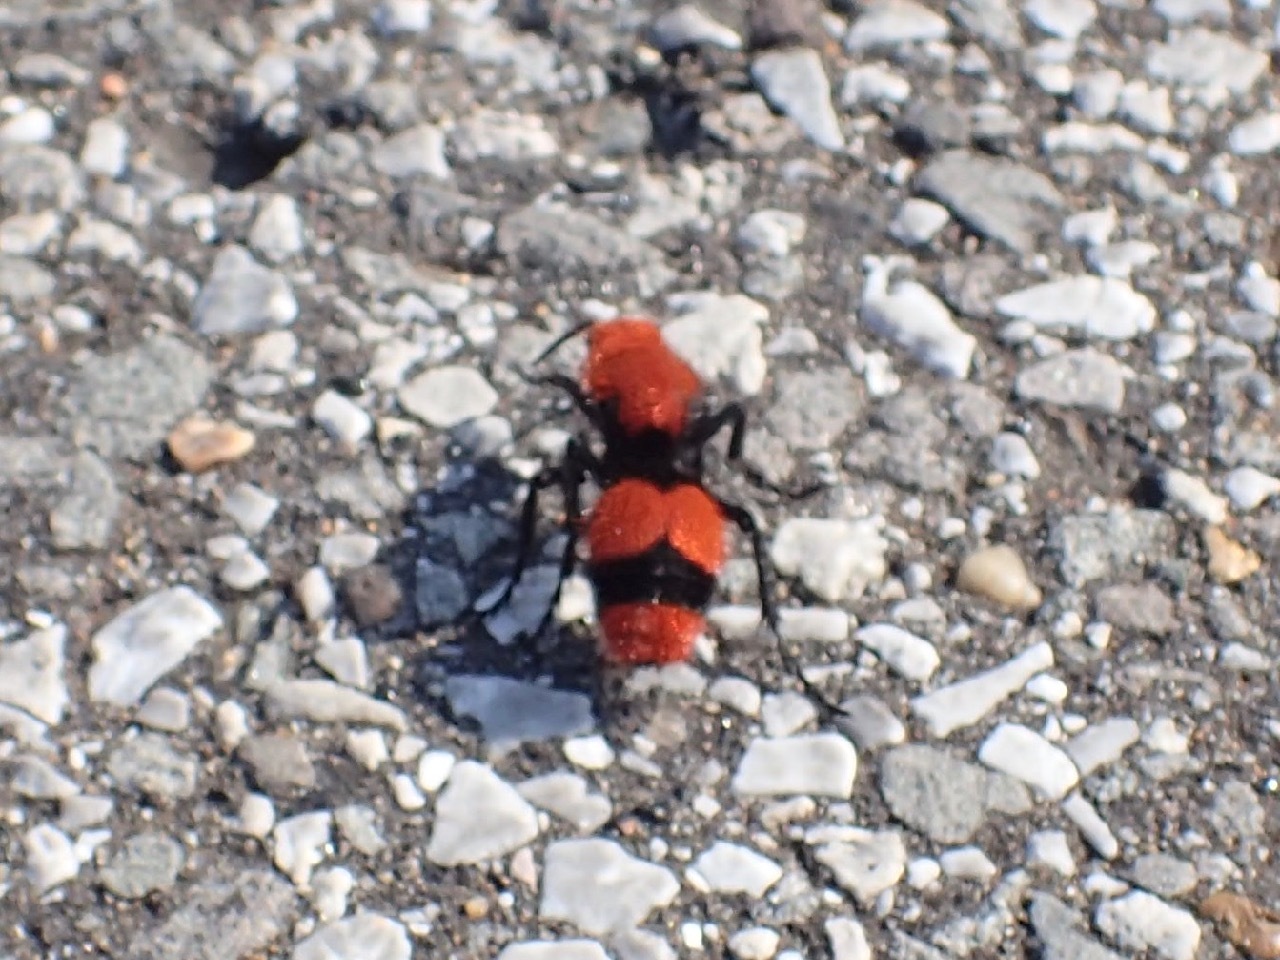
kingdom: Animalia
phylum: Arthropoda
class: Insecta
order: Hymenoptera
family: Mutillidae
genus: Dasymutilla
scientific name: Dasymutilla occidentalis
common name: Common eastern velvet ant
